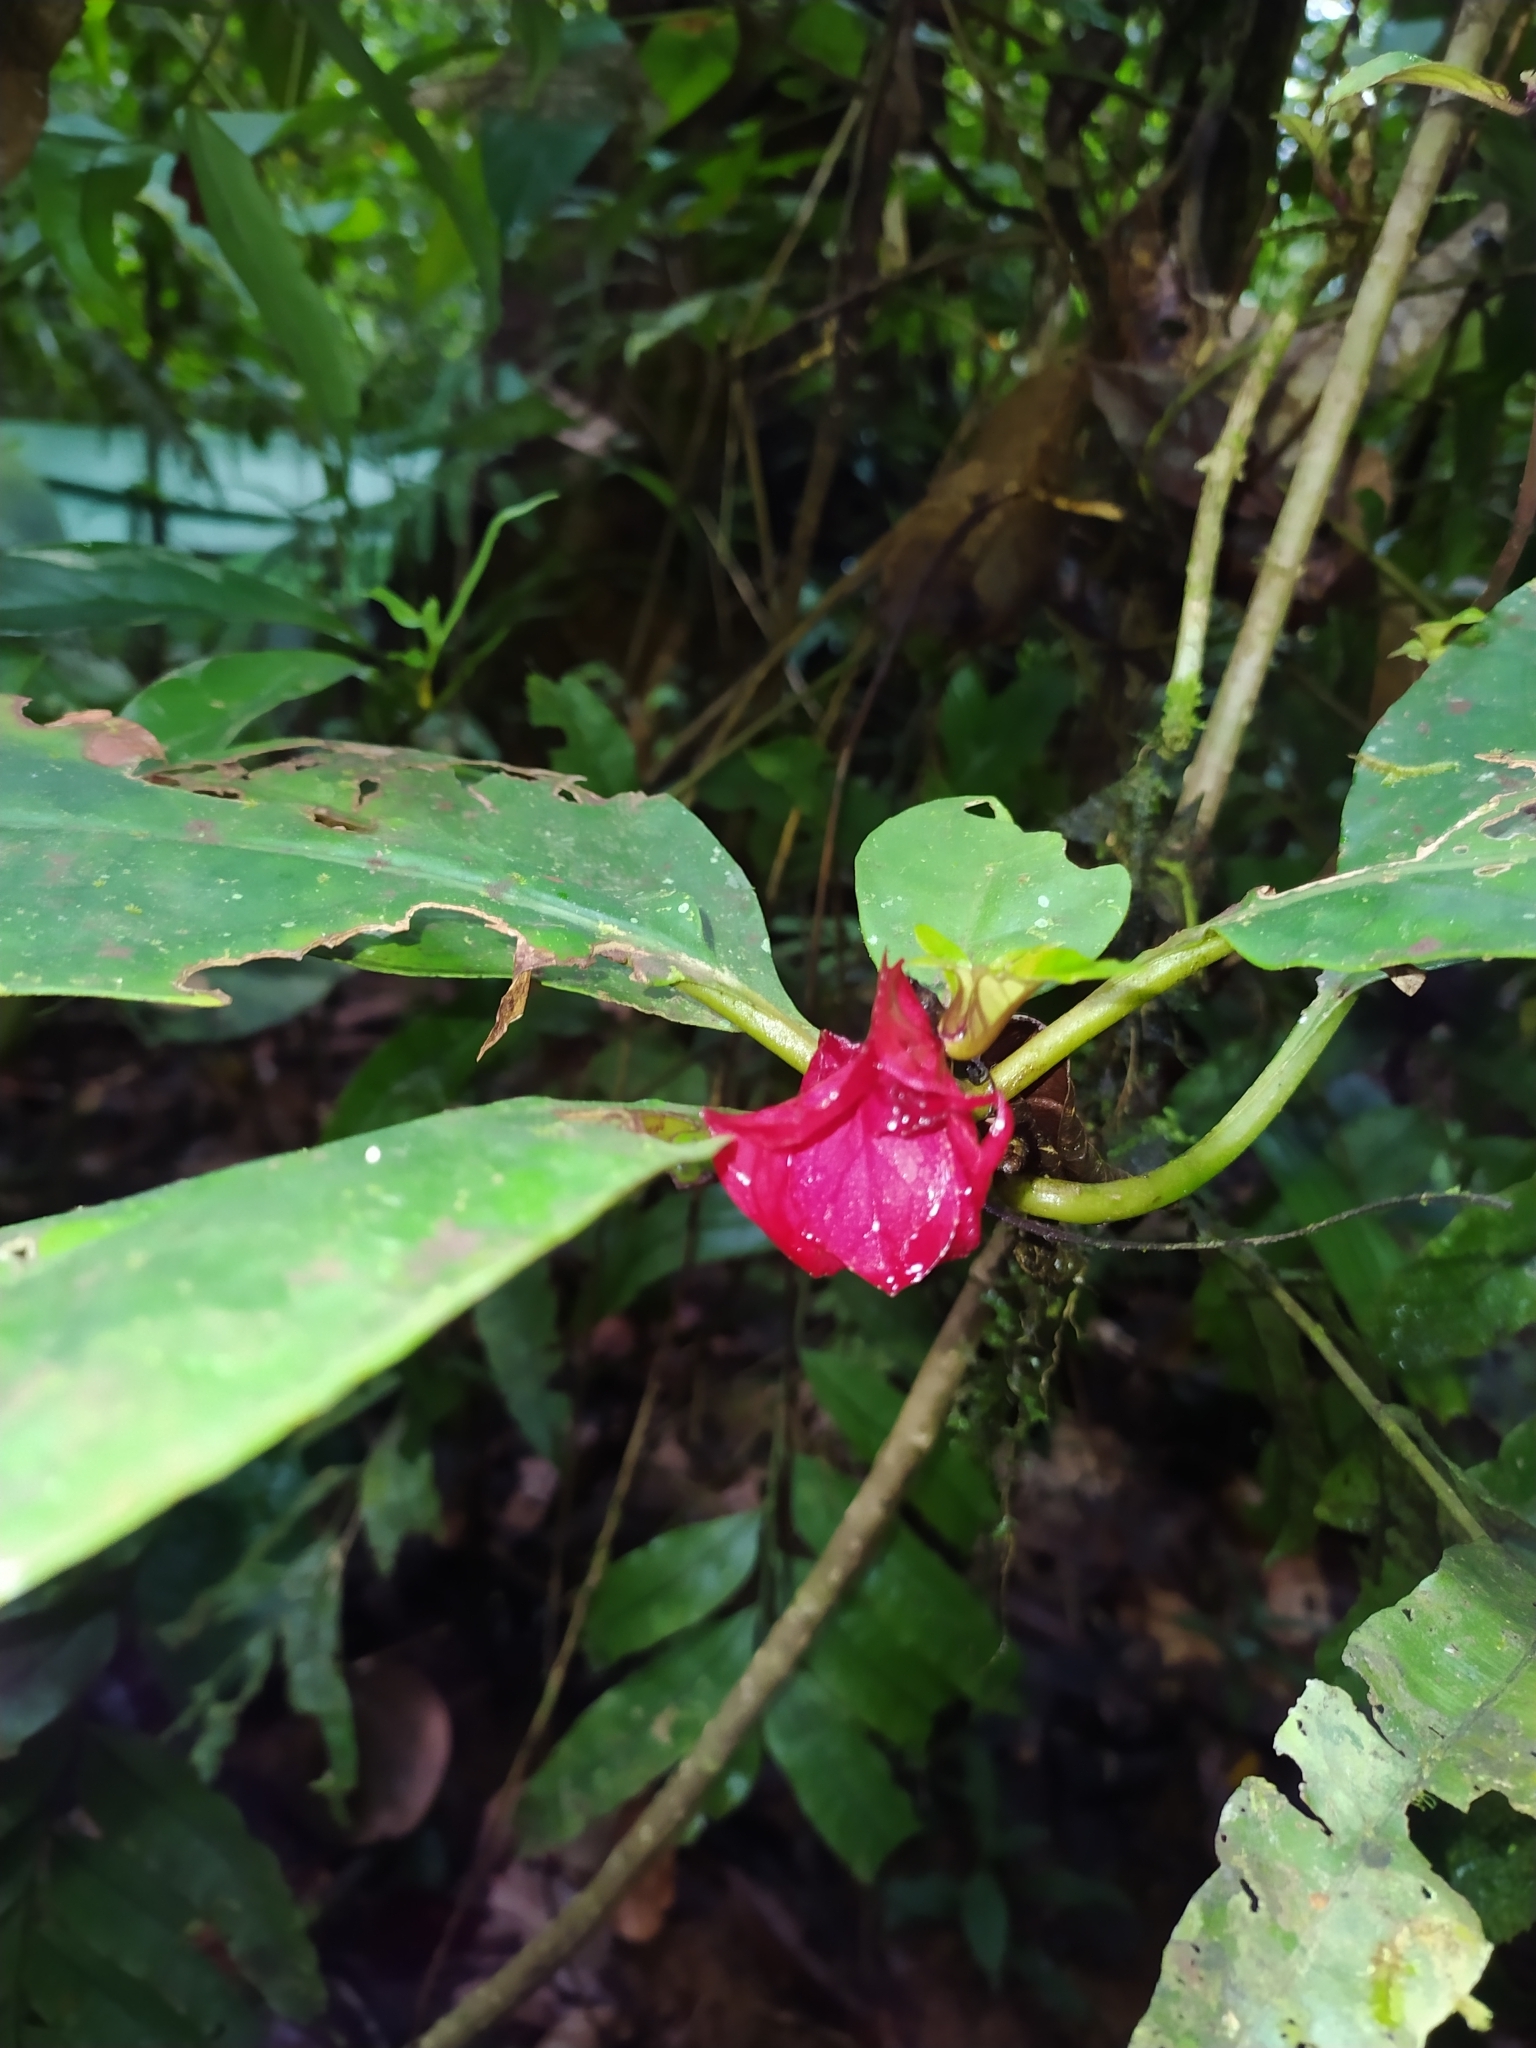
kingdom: Plantae
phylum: Tracheophyta
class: Magnoliopsida
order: Lamiales
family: Gesneriaceae
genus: Drymonia
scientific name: Drymonia coccinea
